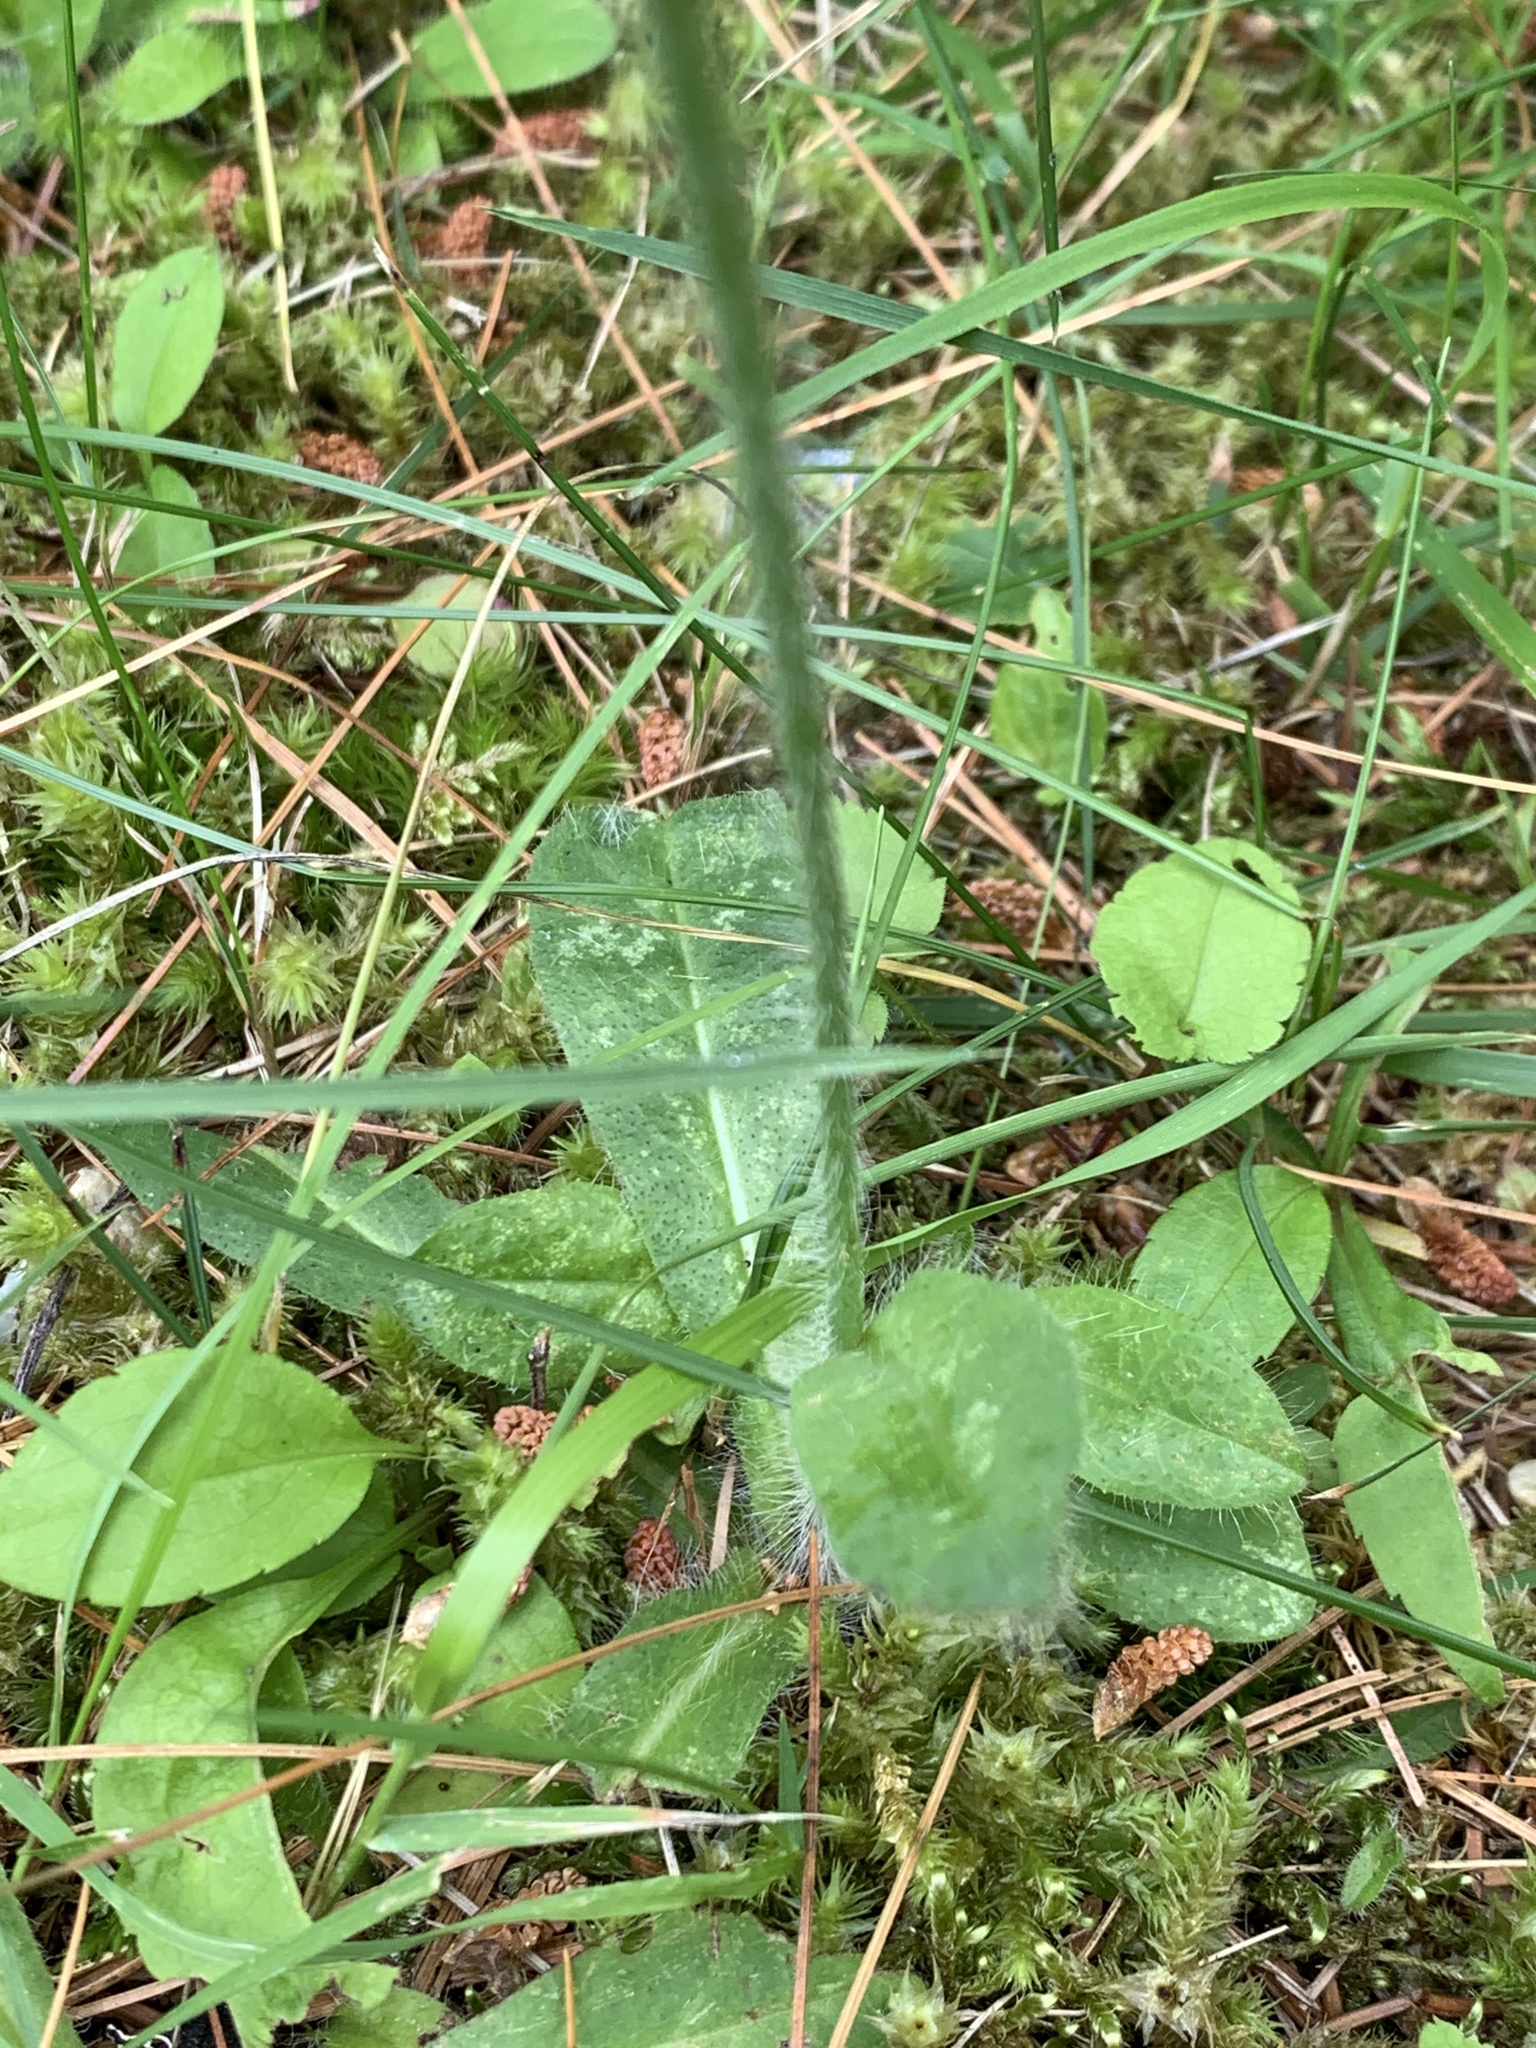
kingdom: Plantae
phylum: Tracheophyta
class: Magnoliopsida
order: Asterales
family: Asteraceae
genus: Pilosella
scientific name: Pilosella aurantiaca
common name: Fox-and-cubs
